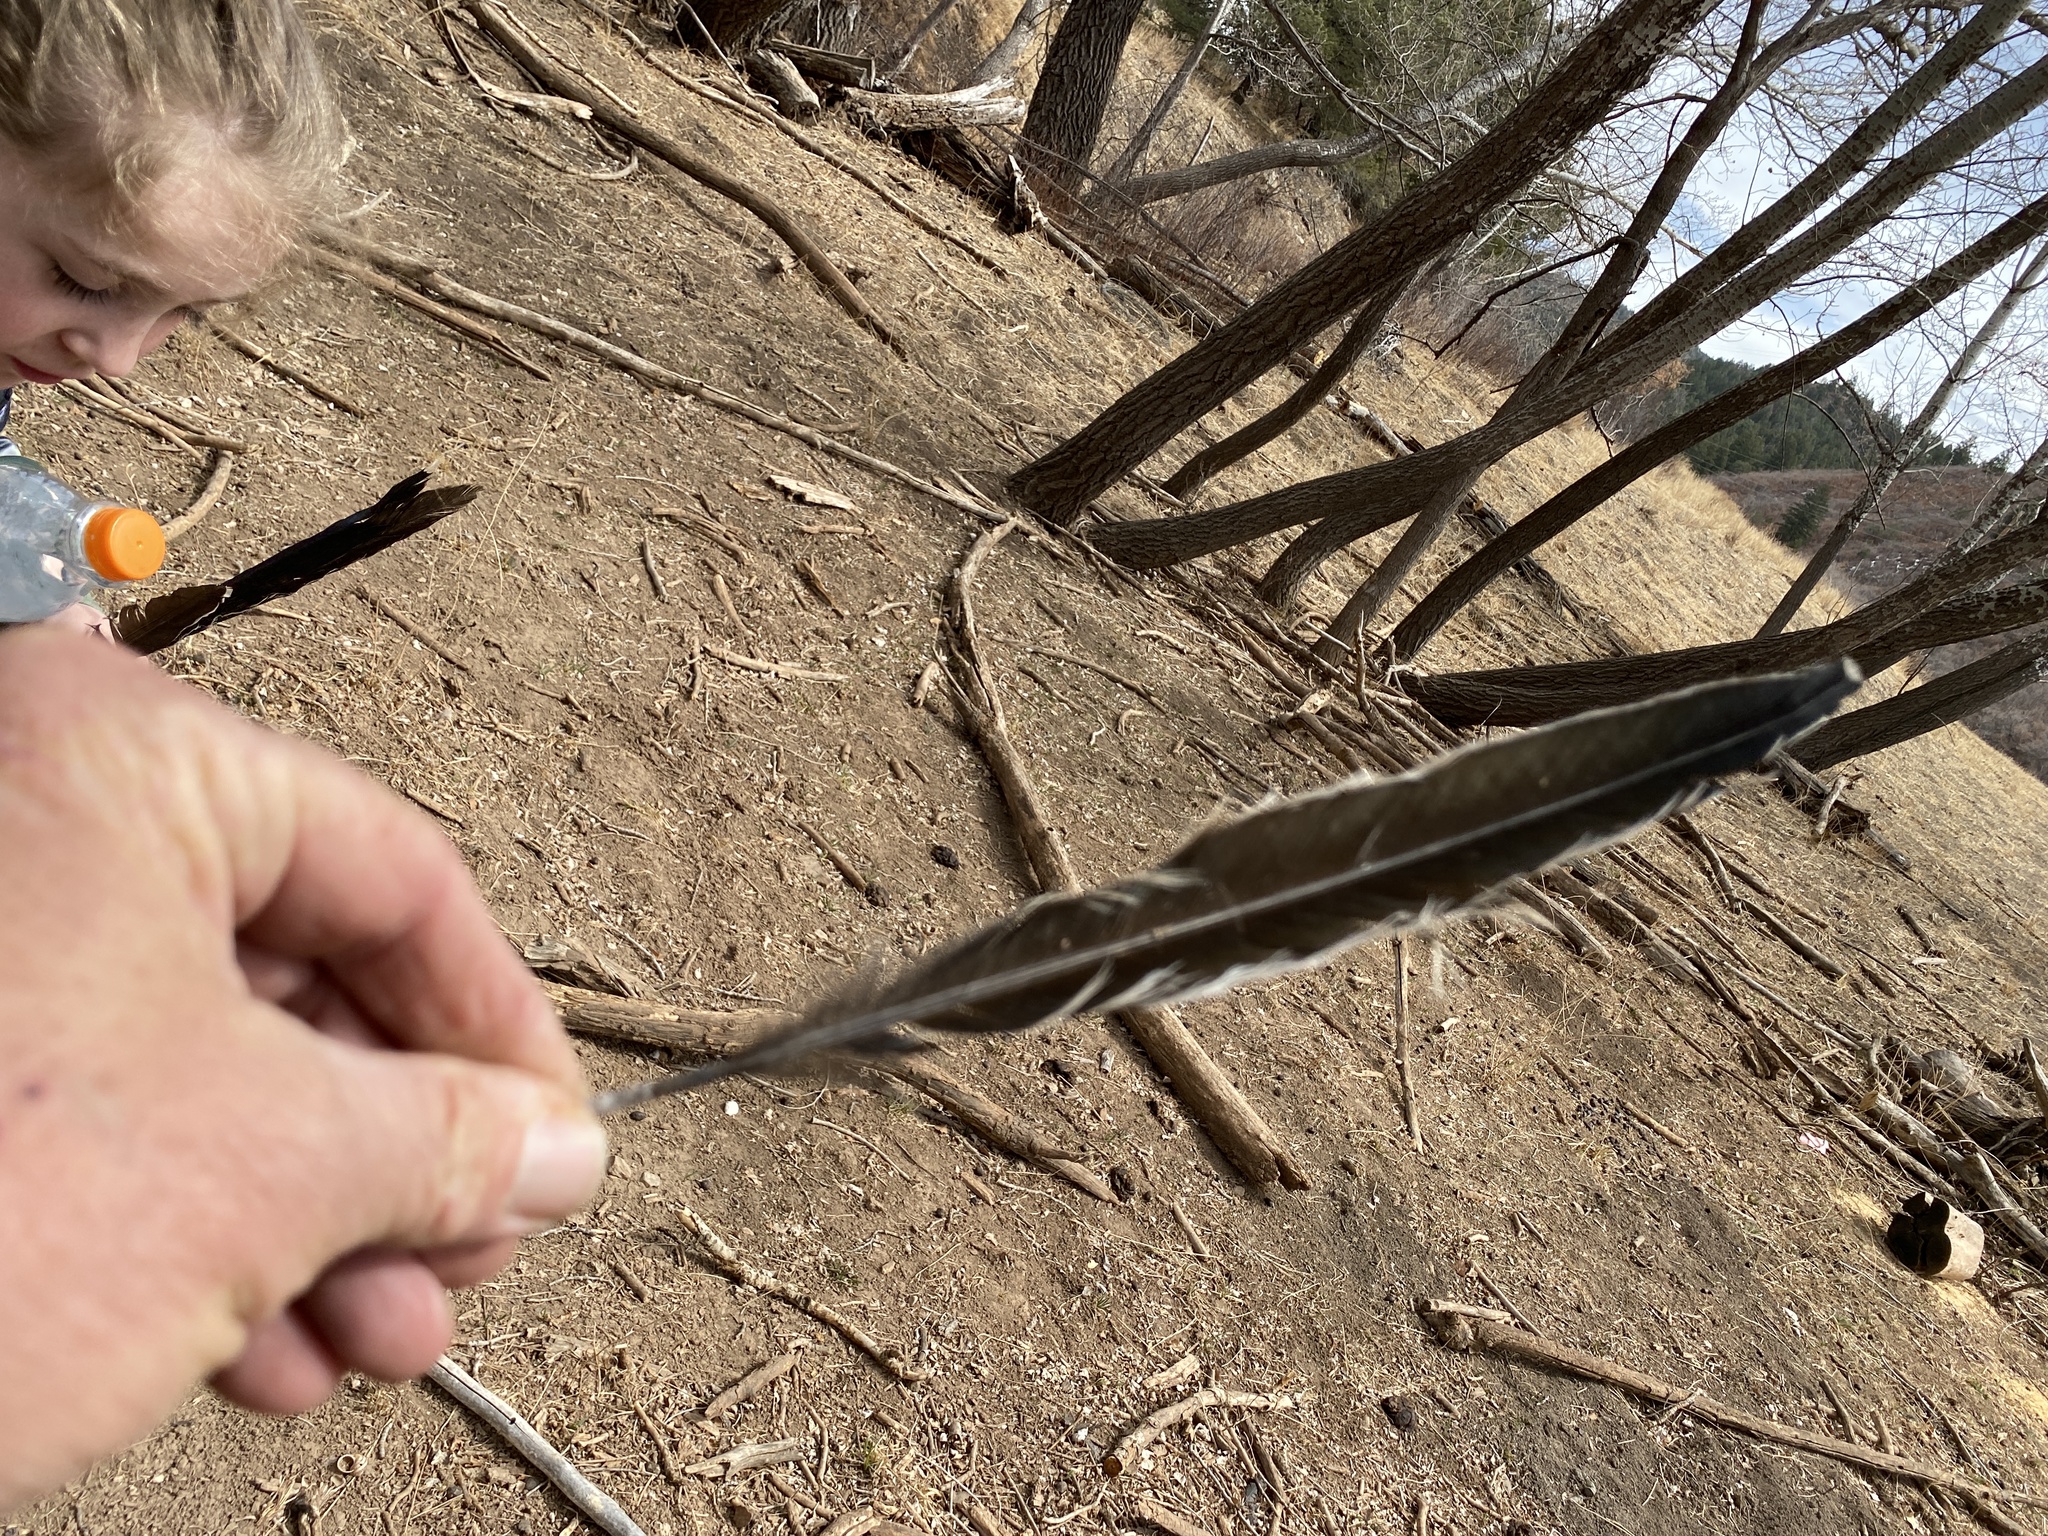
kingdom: Animalia
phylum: Chordata
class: Aves
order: Cuculiformes
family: Cuculidae
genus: Geococcyx
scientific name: Geococcyx californianus
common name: Greater roadrunner
